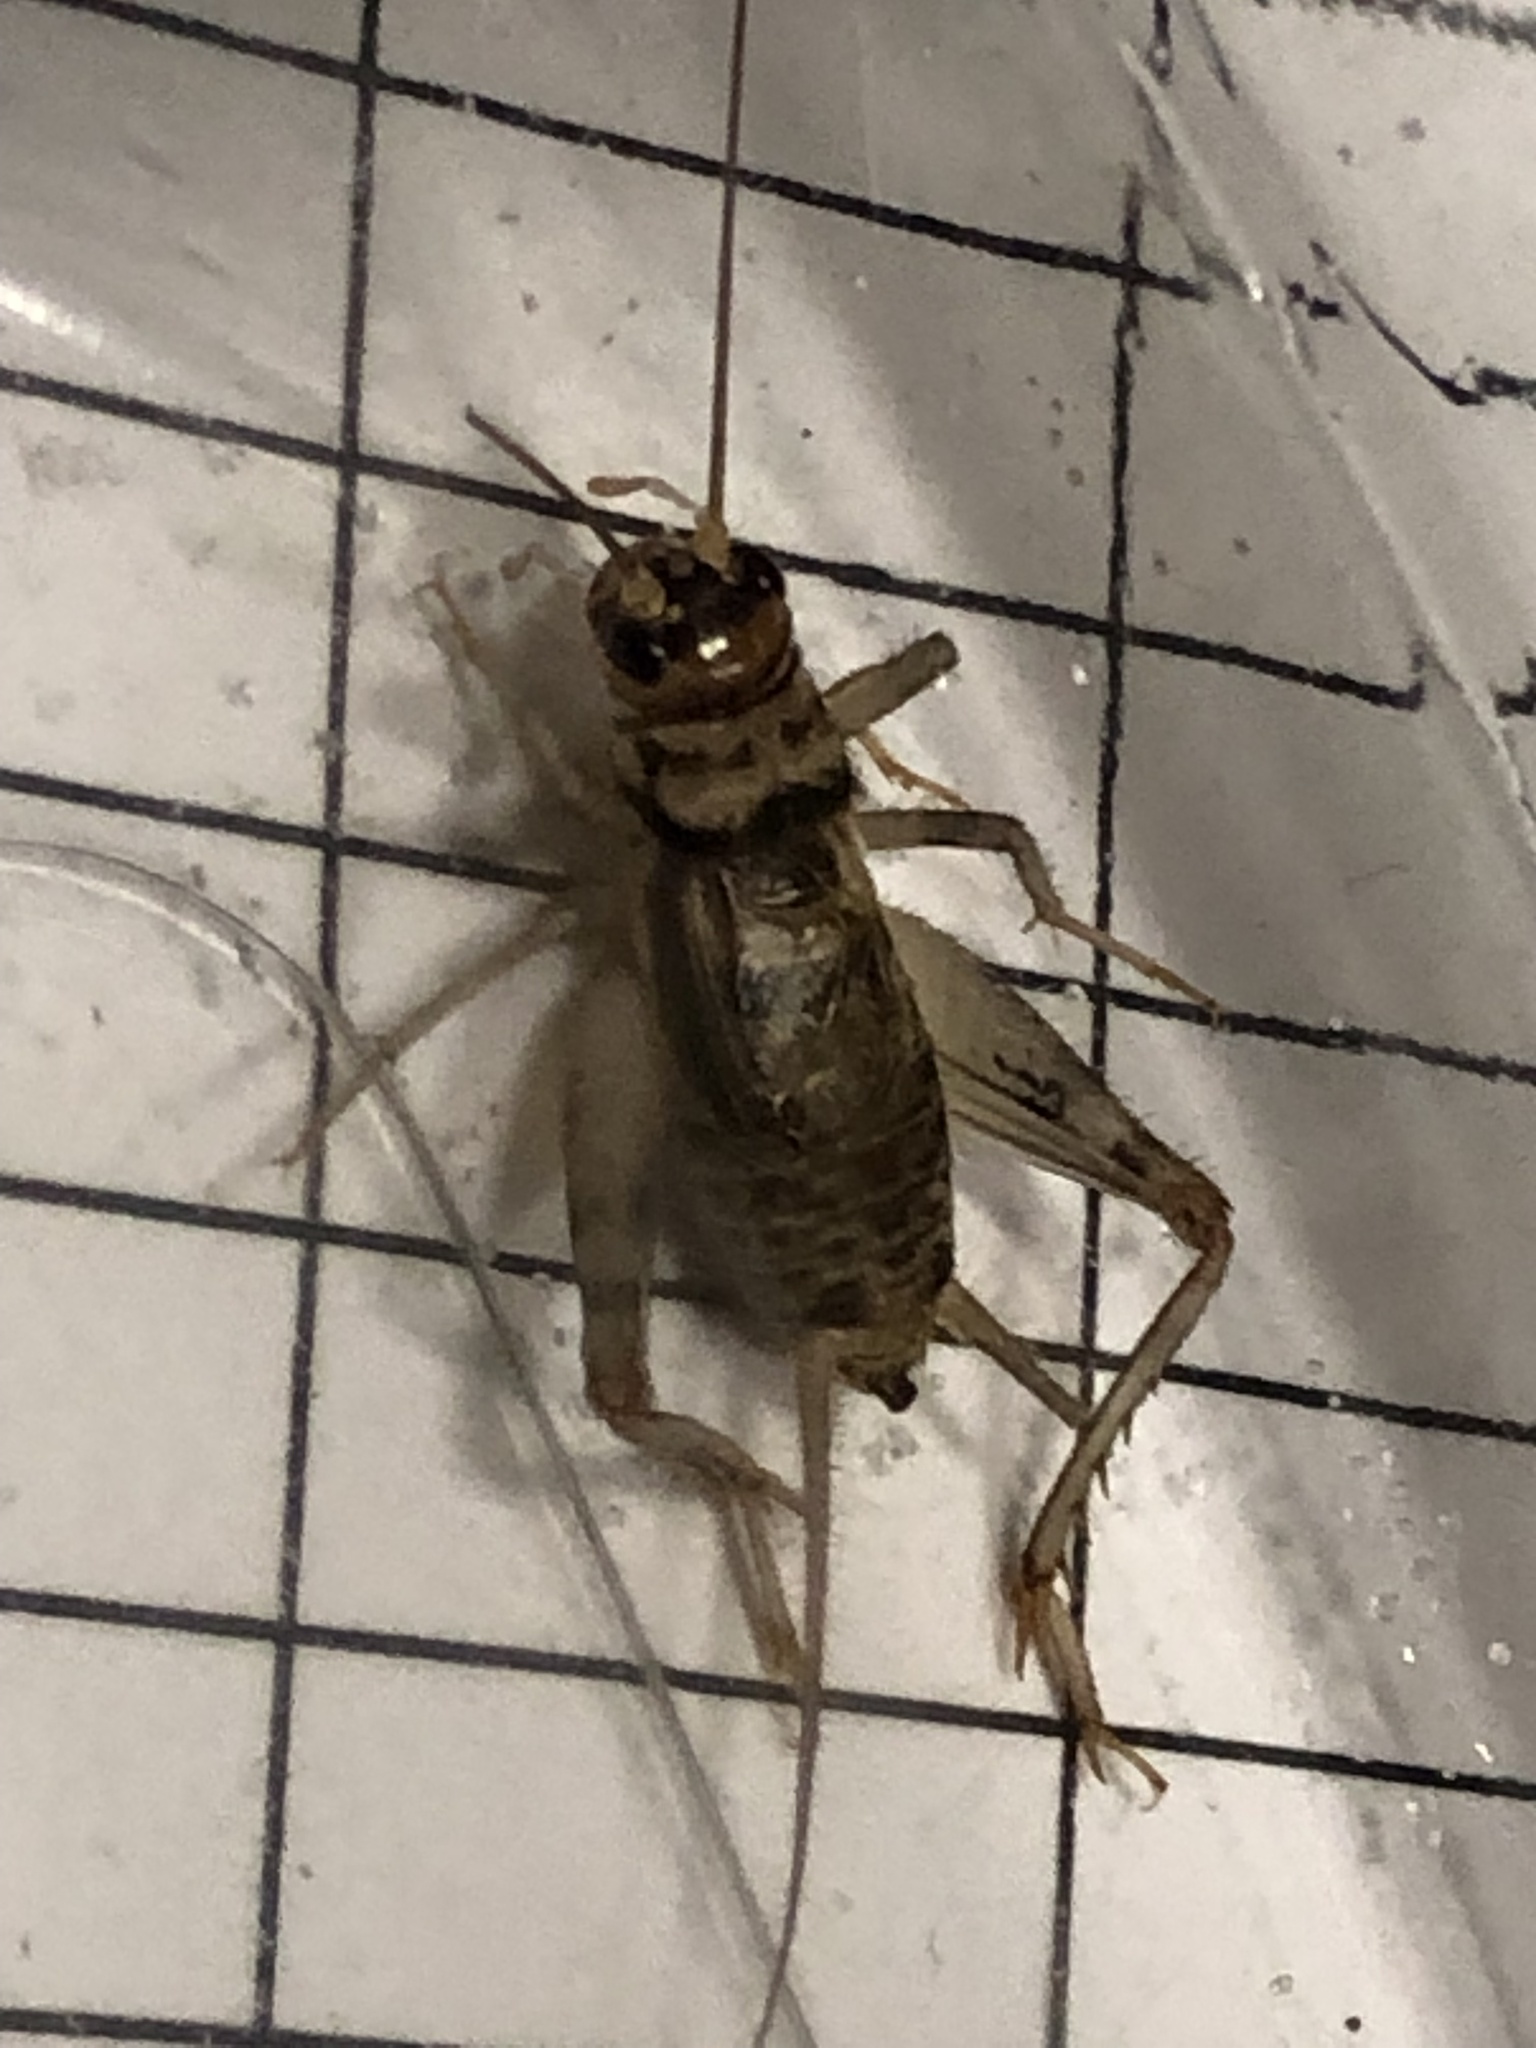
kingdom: Animalia
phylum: Arthropoda
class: Insecta
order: Orthoptera
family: Gryllidae
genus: Gryllodes
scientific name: Gryllodes sigillatus
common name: Tropical house cricket
